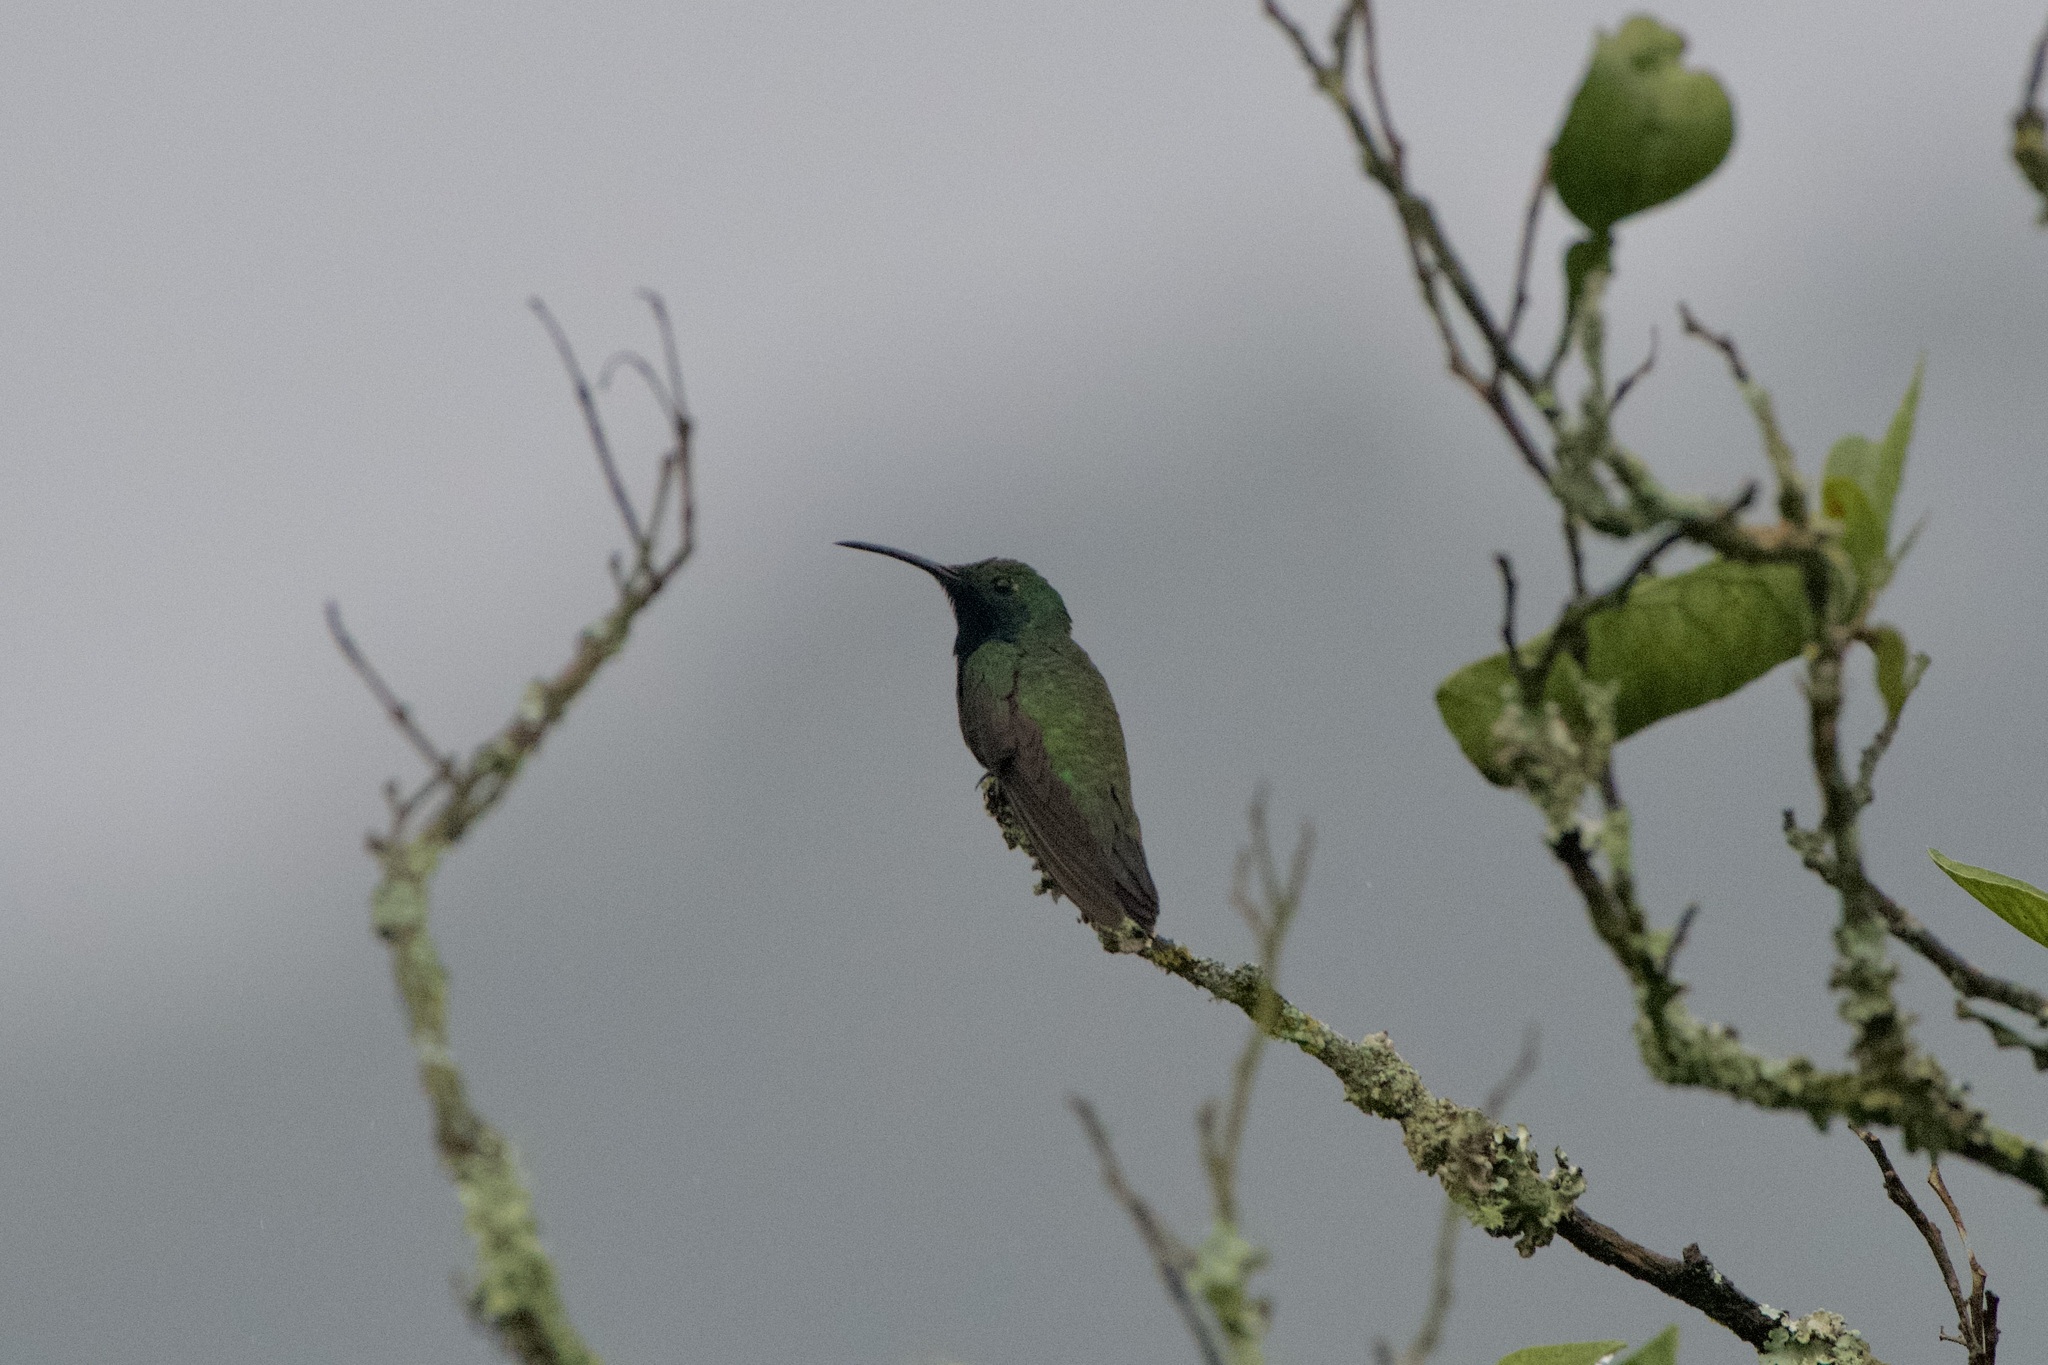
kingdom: Animalia
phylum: Chordata
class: Aves
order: Apodiformes
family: Trochilidae
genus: Anthracothorax
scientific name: Anthracothorax nigricollis
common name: Black-throated mango
